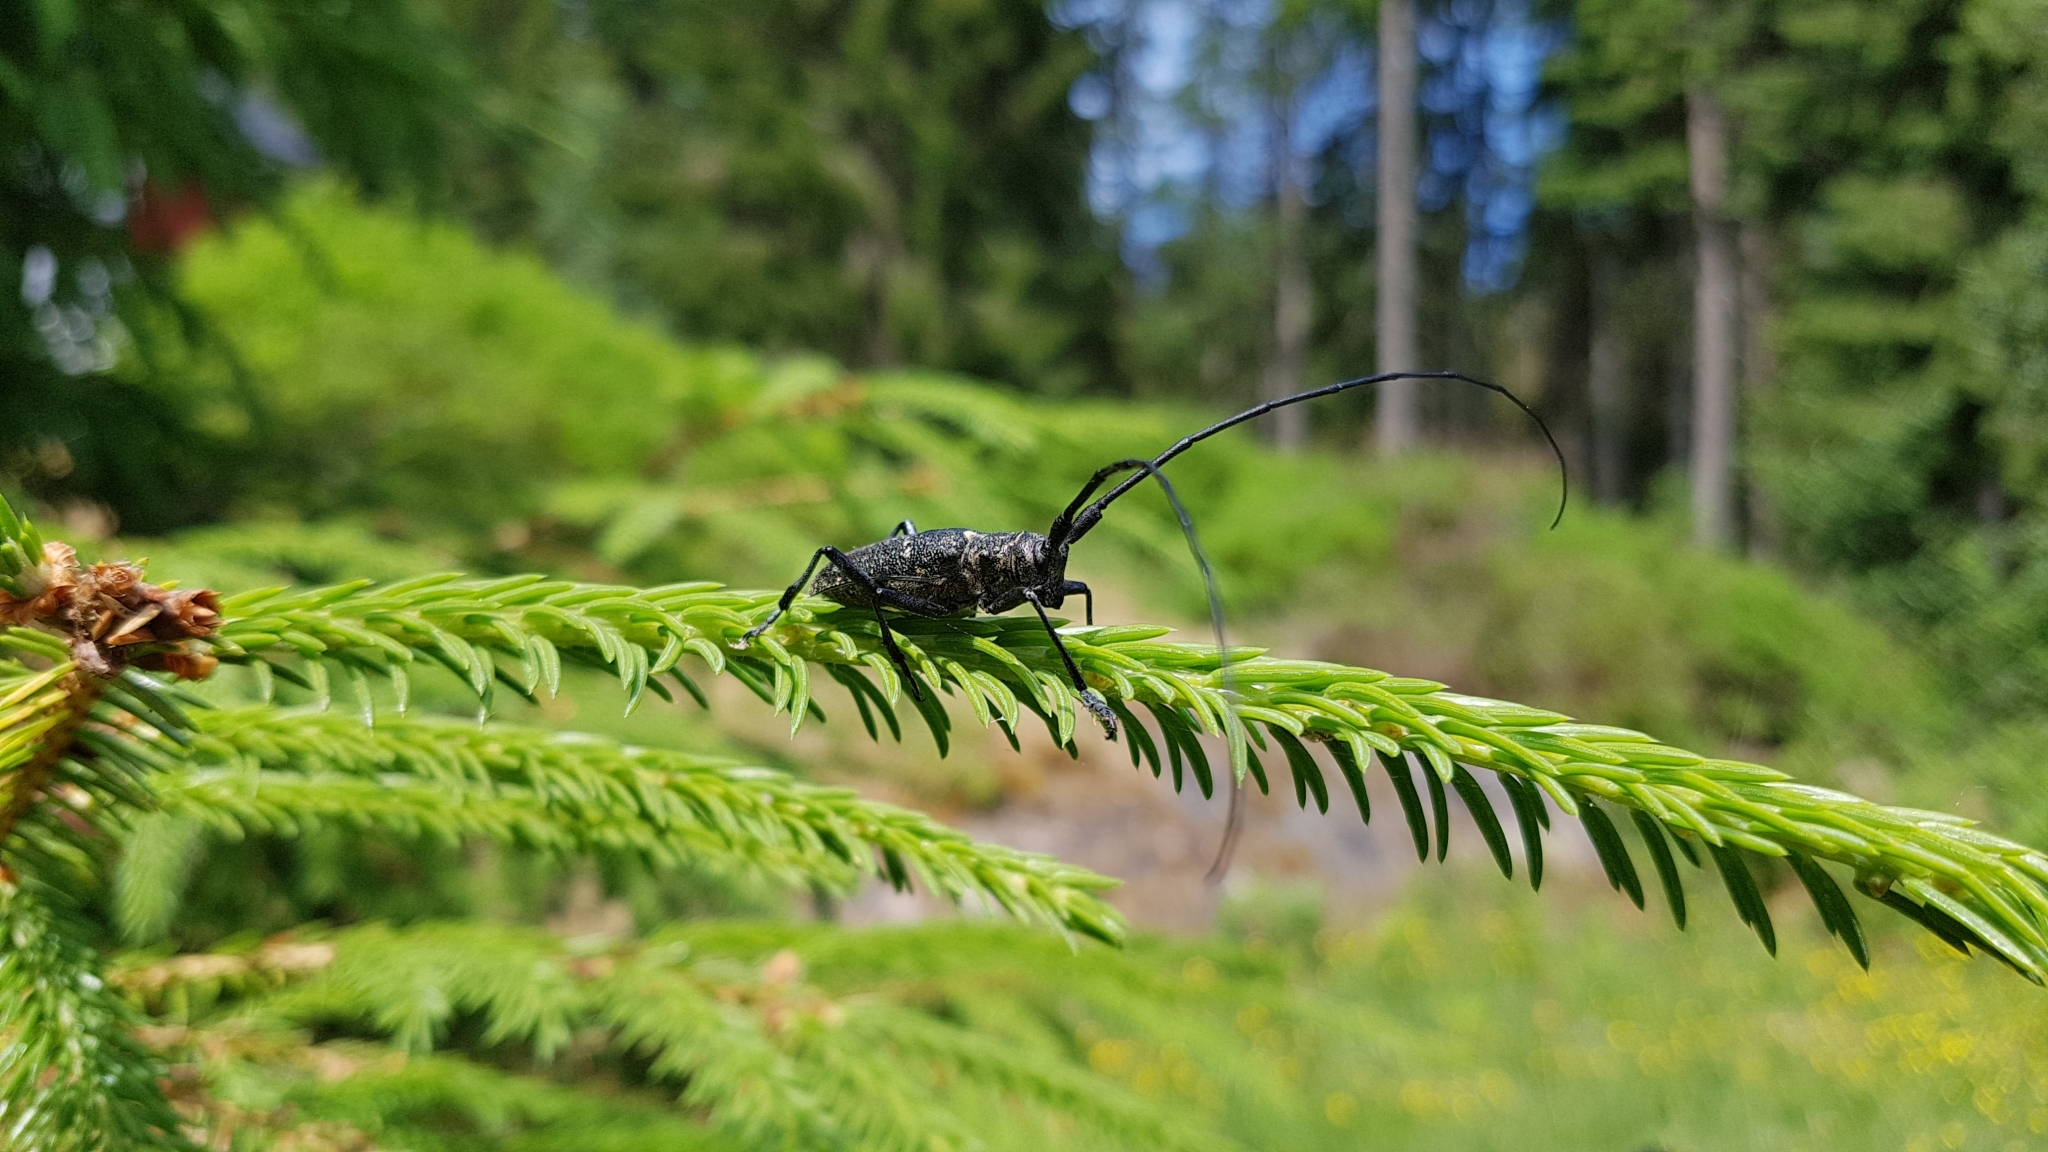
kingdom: Animalia
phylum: Arthropoda
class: Insecta
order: Coleoptera
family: Cerambycidae
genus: Monochamus
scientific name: Monochamus sutor
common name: Pine sawyer
